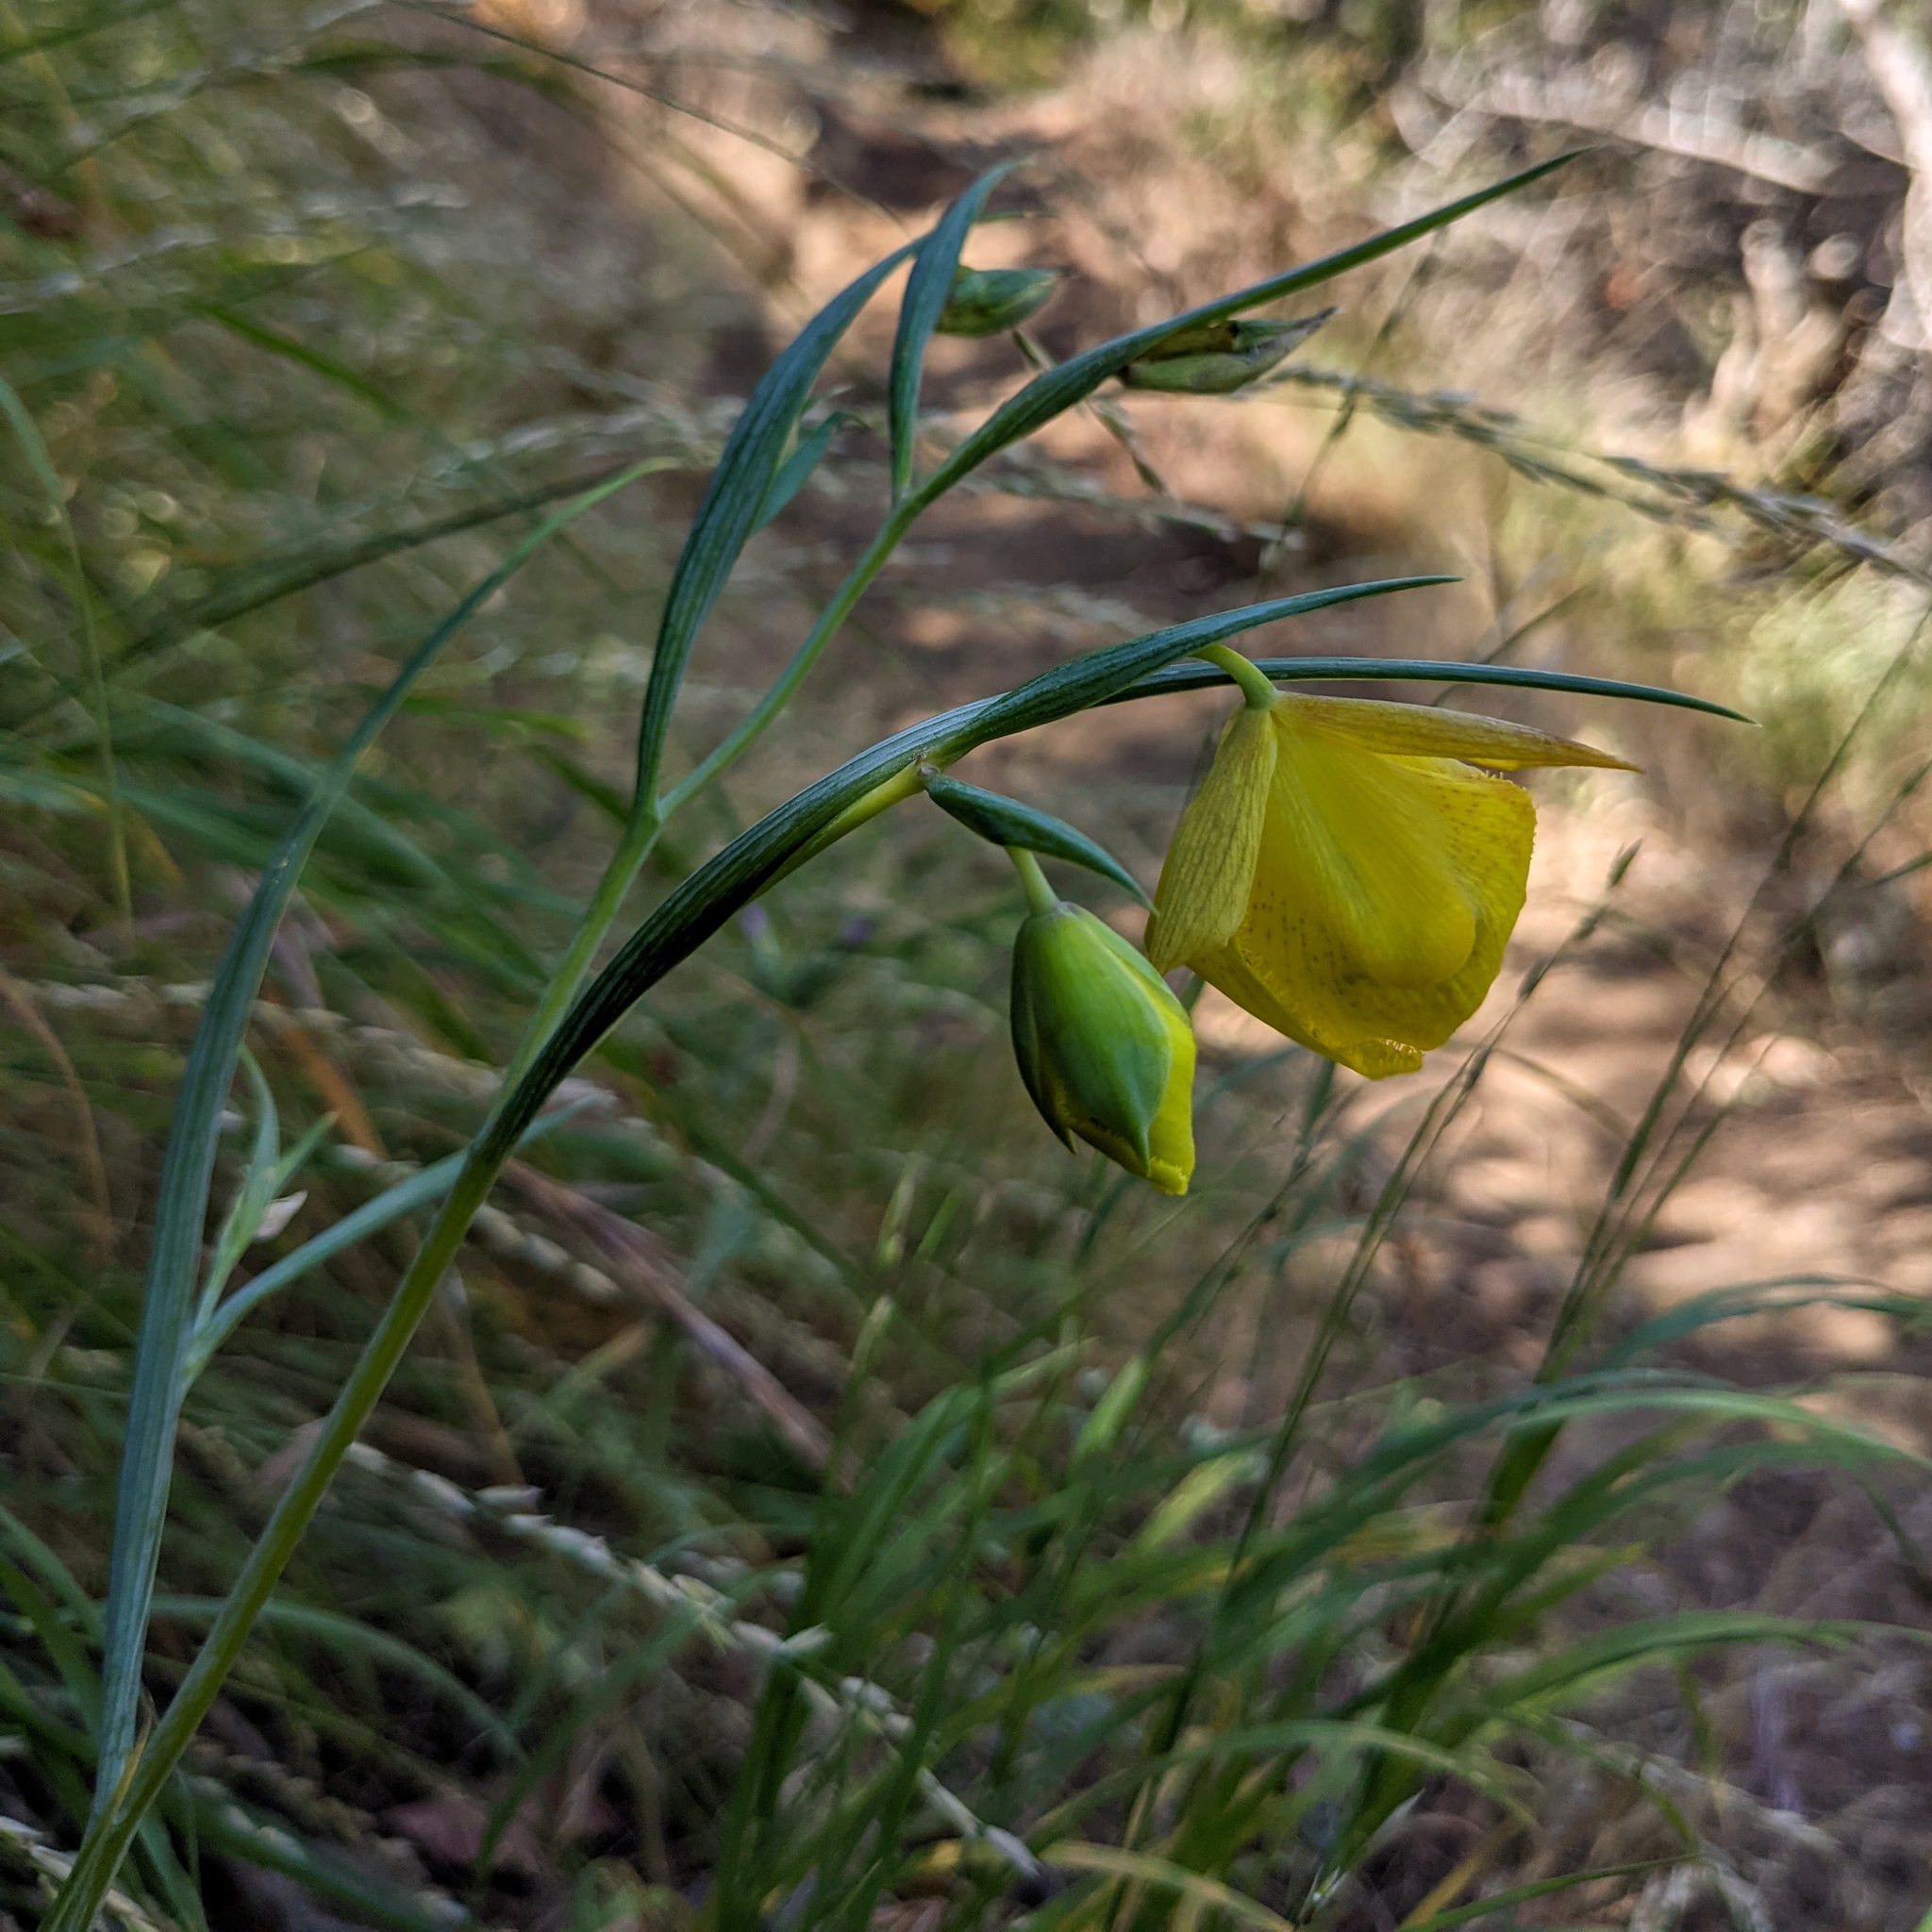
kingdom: Plantae
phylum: Tracheophyta
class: Liliopsida
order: Liliales
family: Liliaceae
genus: Calochortus
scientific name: Calochortus pulchellus
